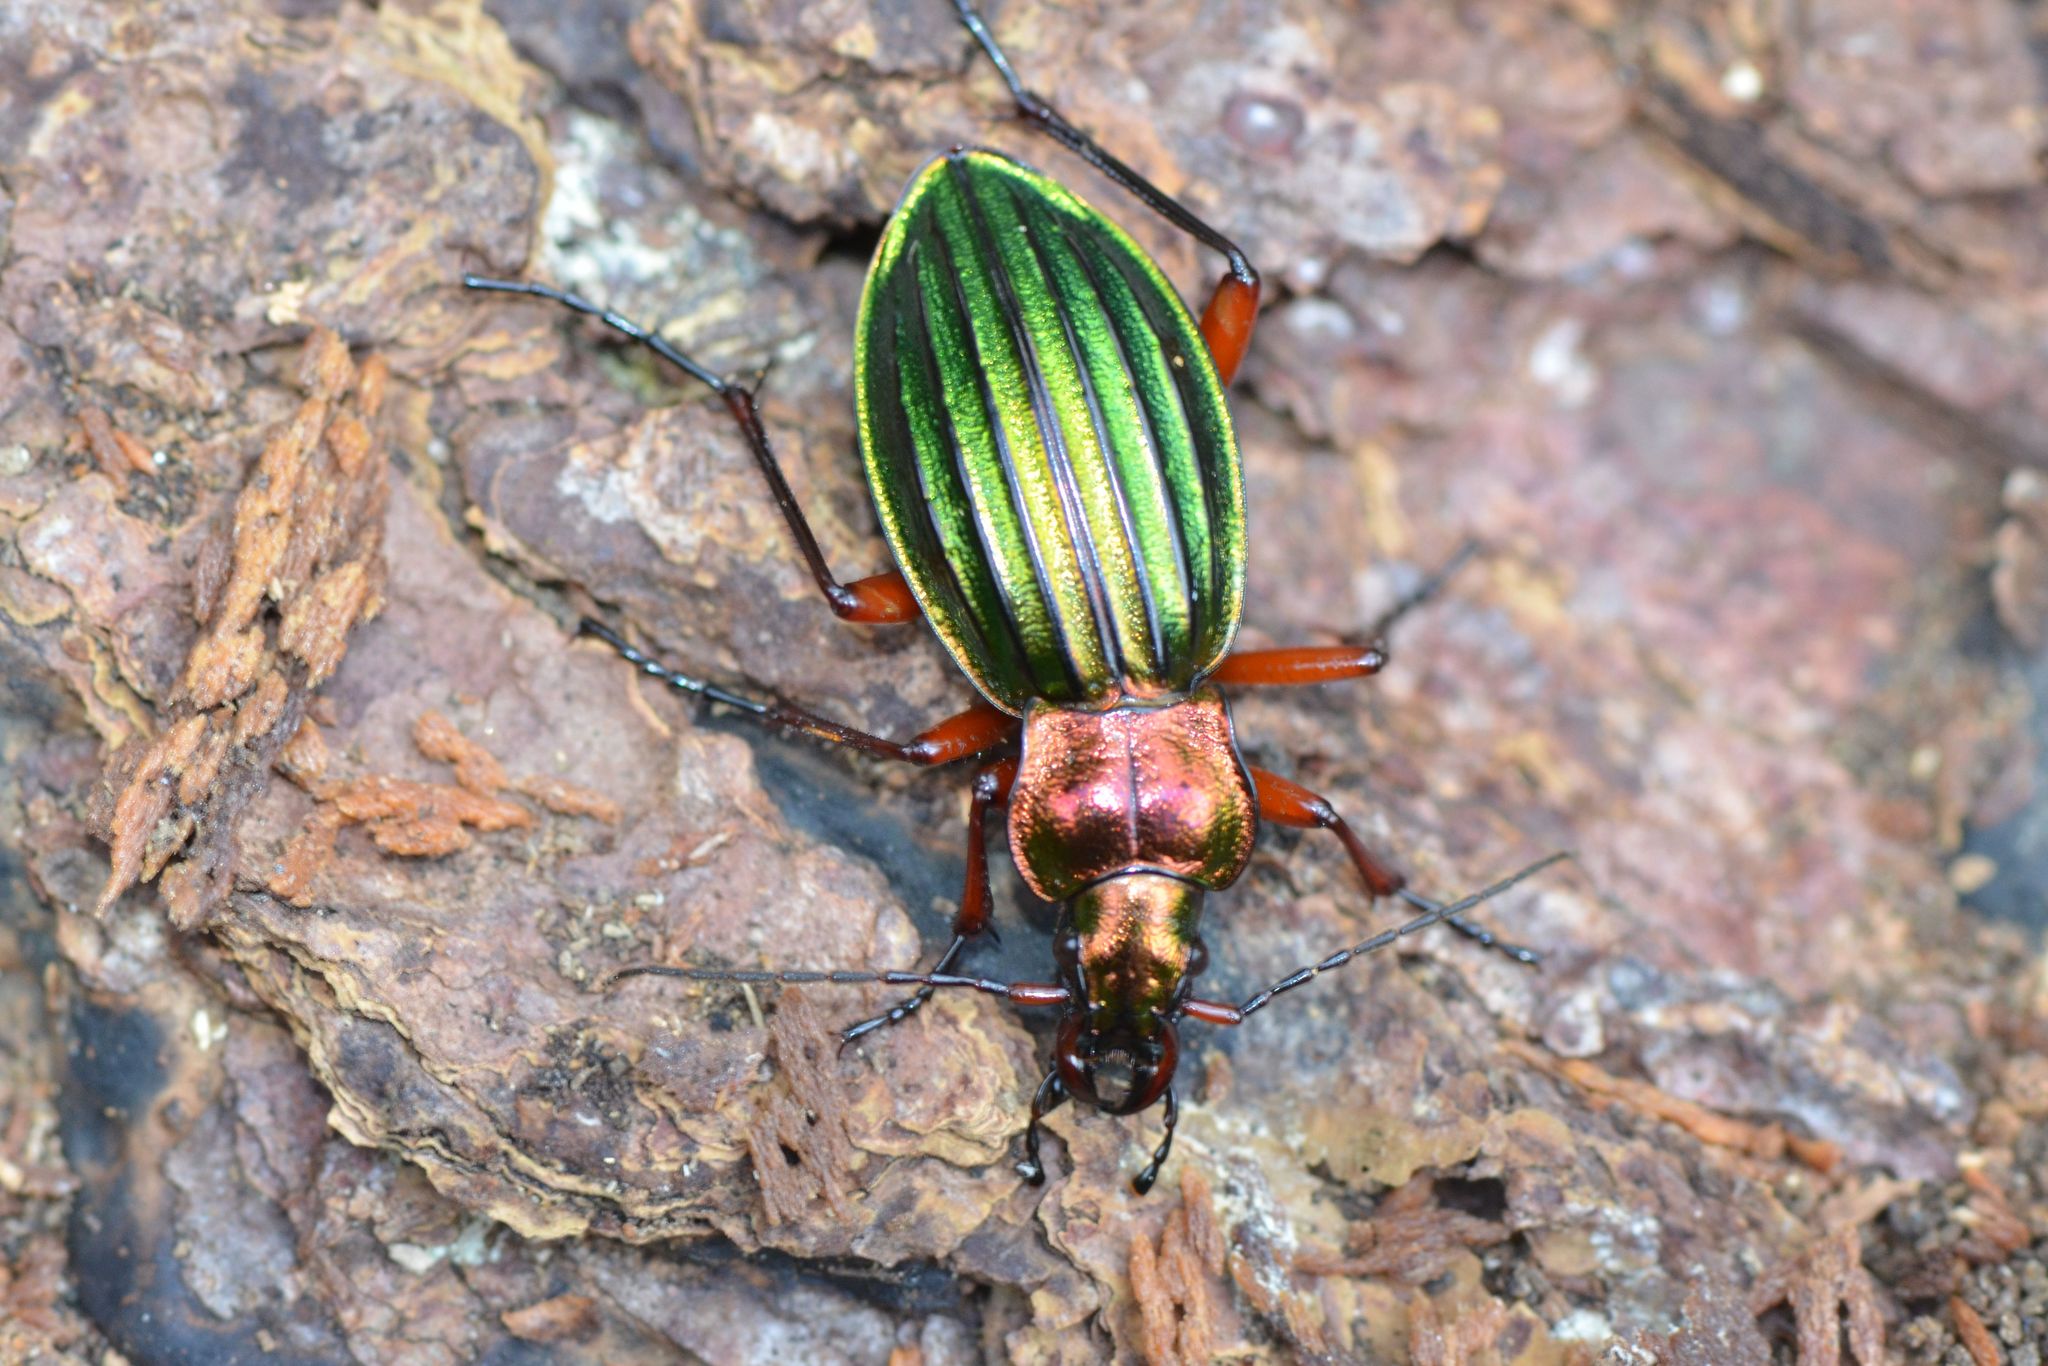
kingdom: Animalia
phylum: Arthropoda
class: Insecta
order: Coleoptera
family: Carabidae
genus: Carabus
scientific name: Carabus auronitens
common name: Carabus auronitens
